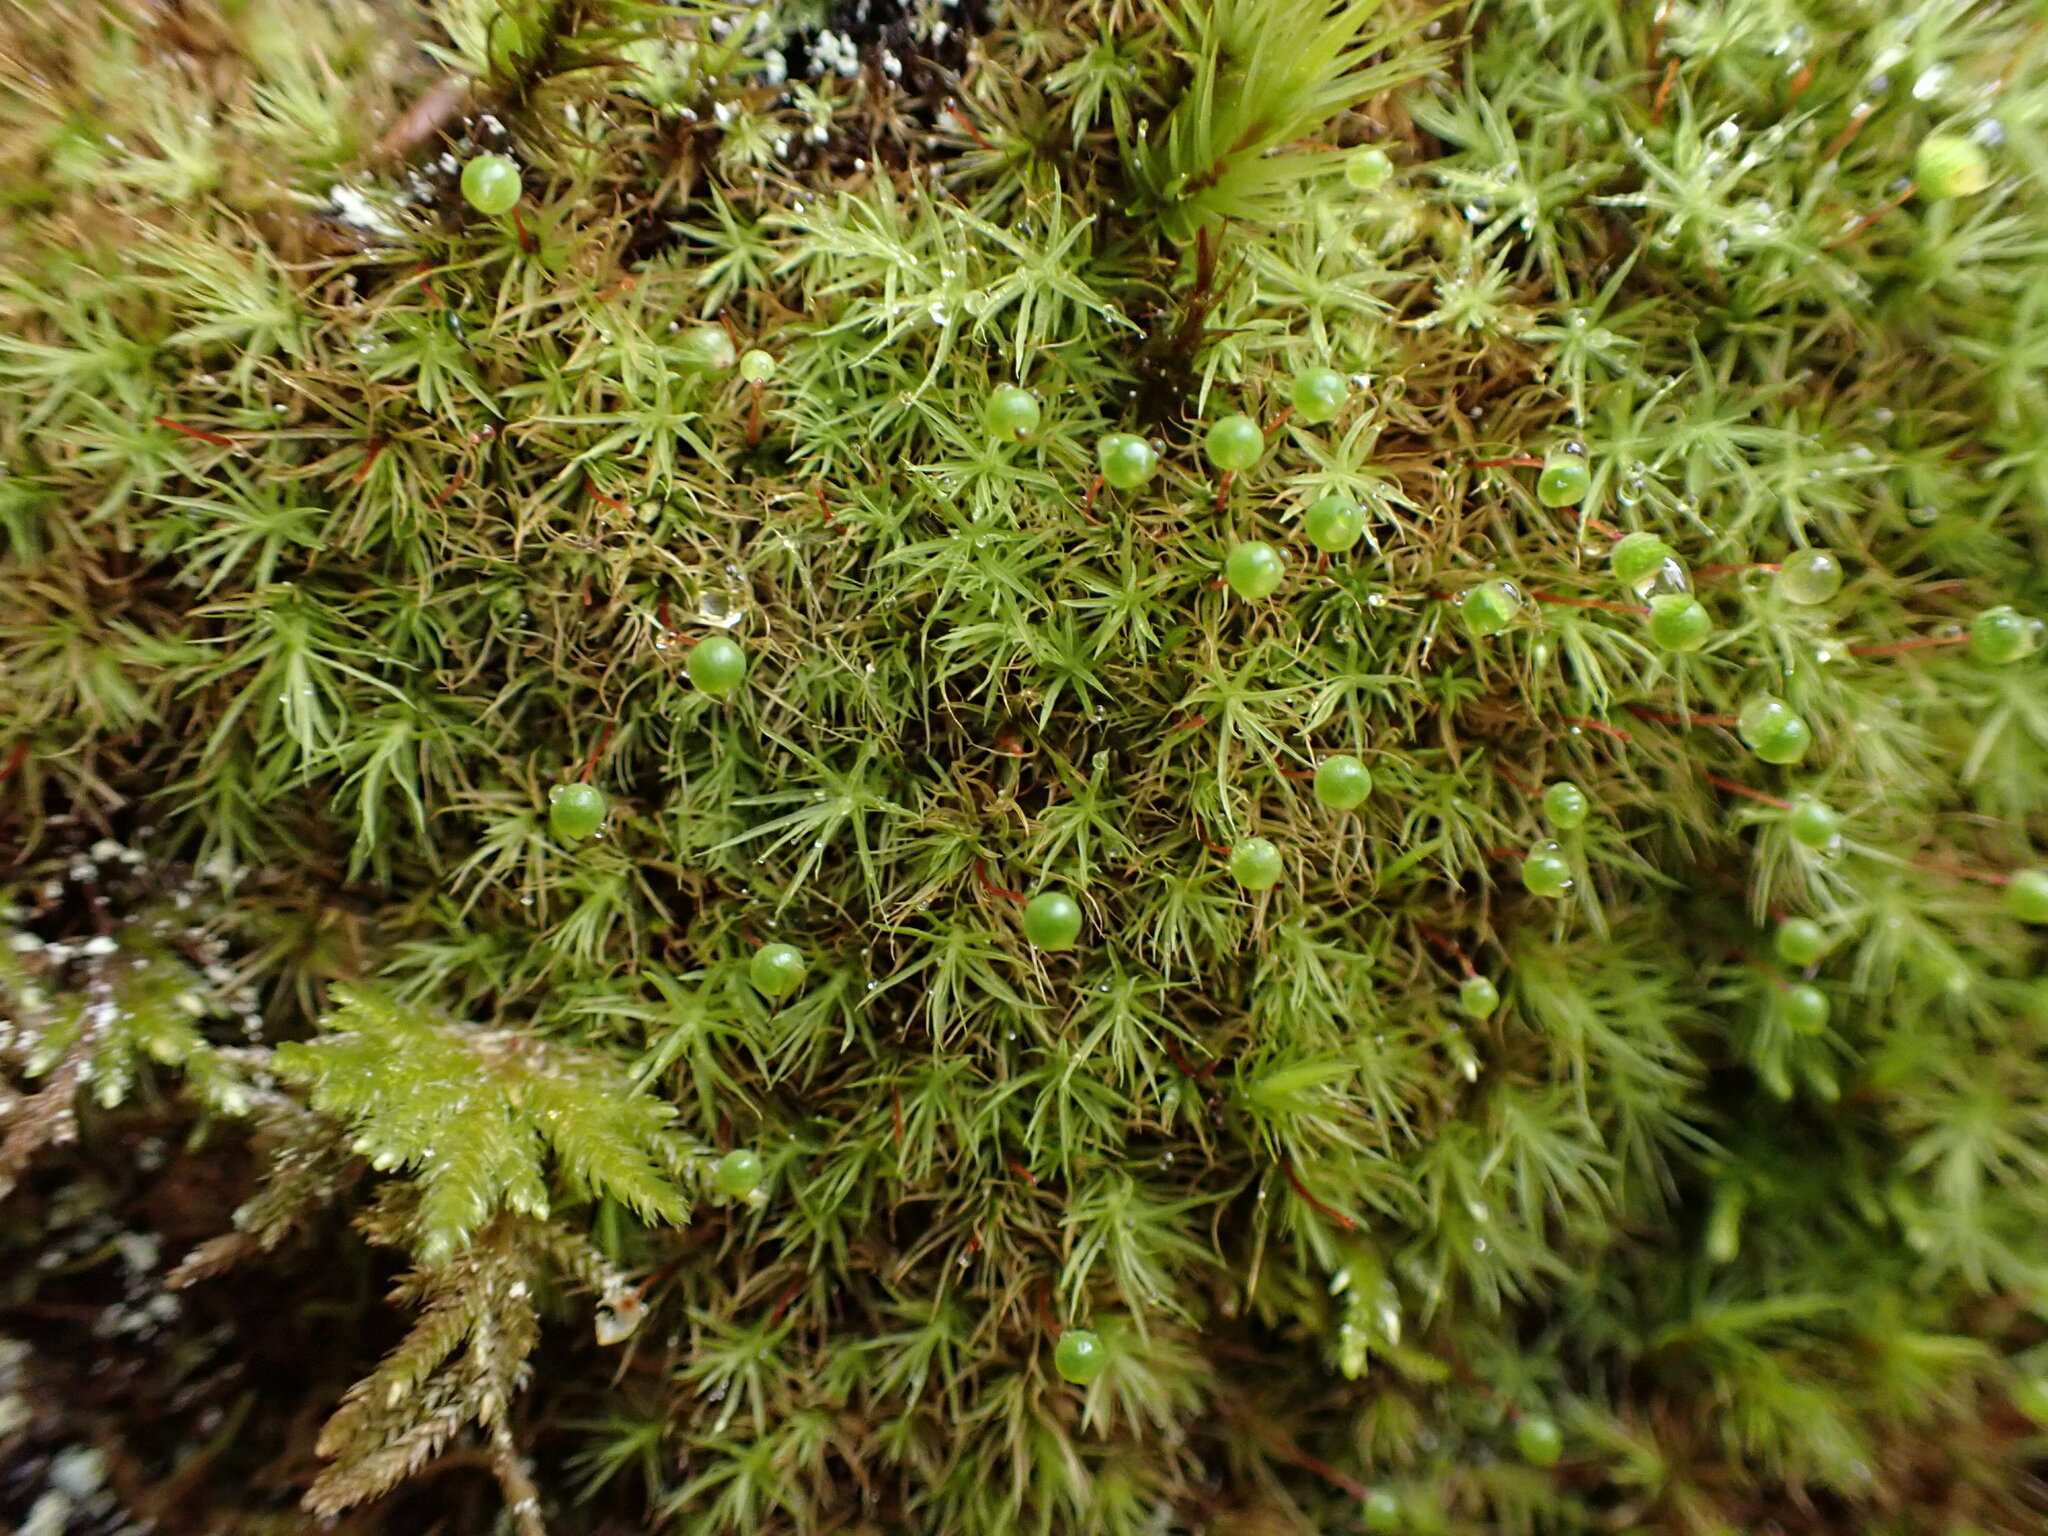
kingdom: Plantae
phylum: Bryophyta
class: Bryopsida
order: Bartramiales
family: Bartramiaceae
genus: Bartramia
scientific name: Bartramia ithyphylla
